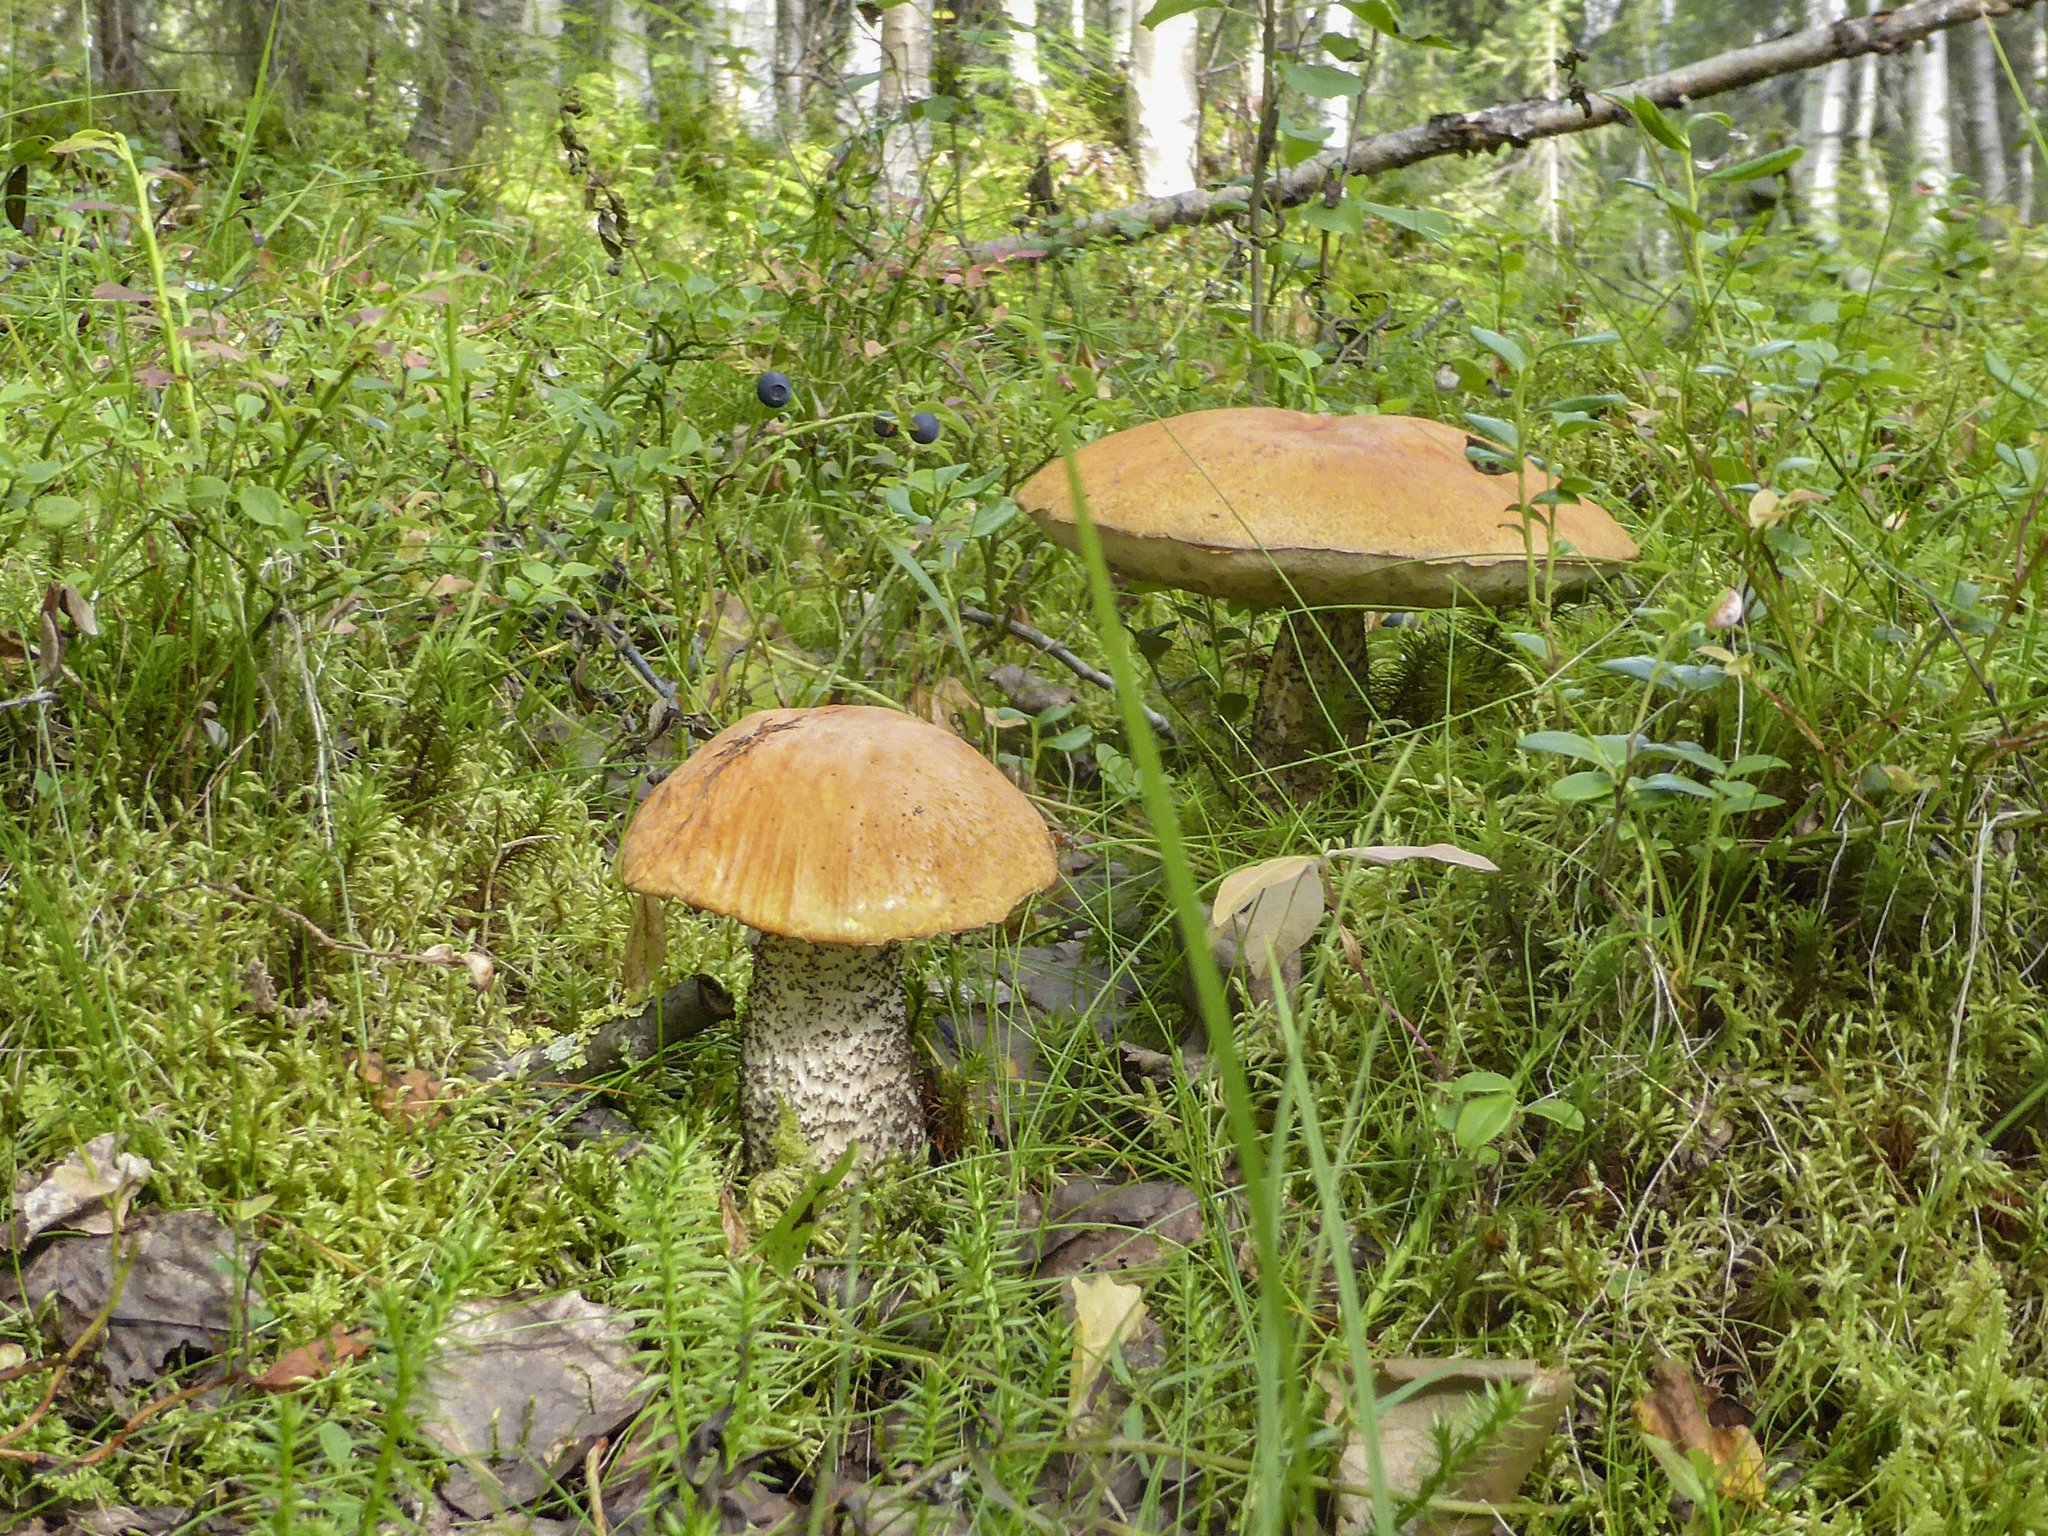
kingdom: Fungi
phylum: Basidiomycota
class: Agaricomycetes
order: Boletales
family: Boletaceae
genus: Leccinum
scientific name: Leccinum aurantiacum
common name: Orange bolete
